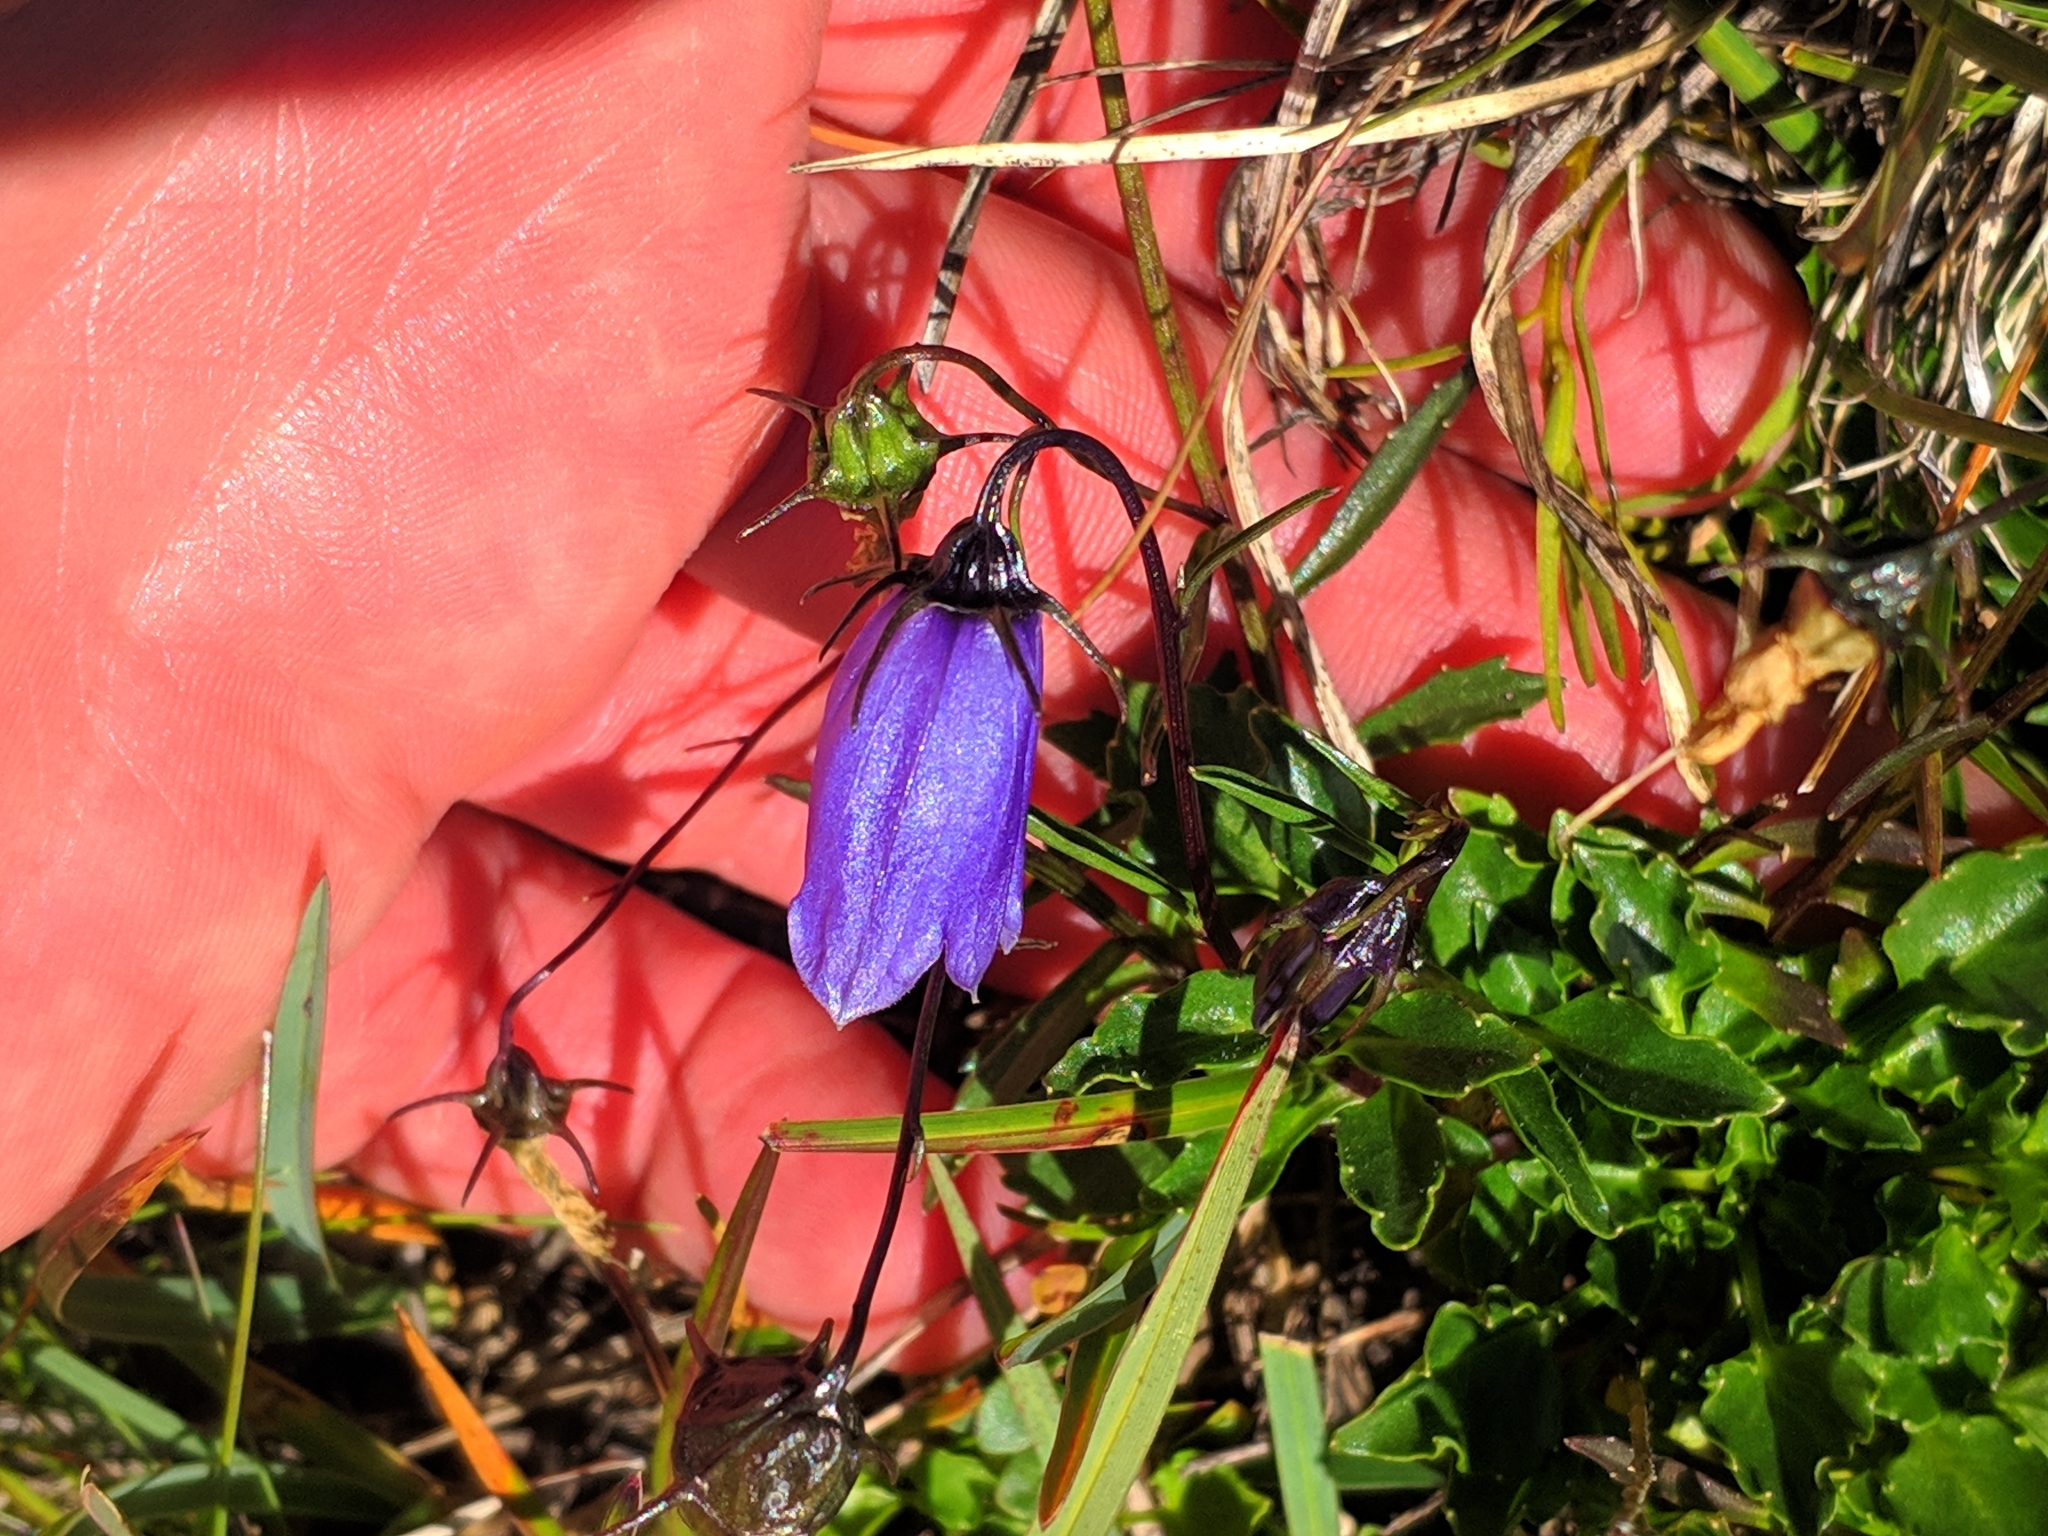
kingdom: Plantae
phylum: Tracheophyta
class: Magnoliopsida
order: Asterales
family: Campanulaceae
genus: Campanula
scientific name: Campanula cochleariifolia
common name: Fairies'-thimbles
